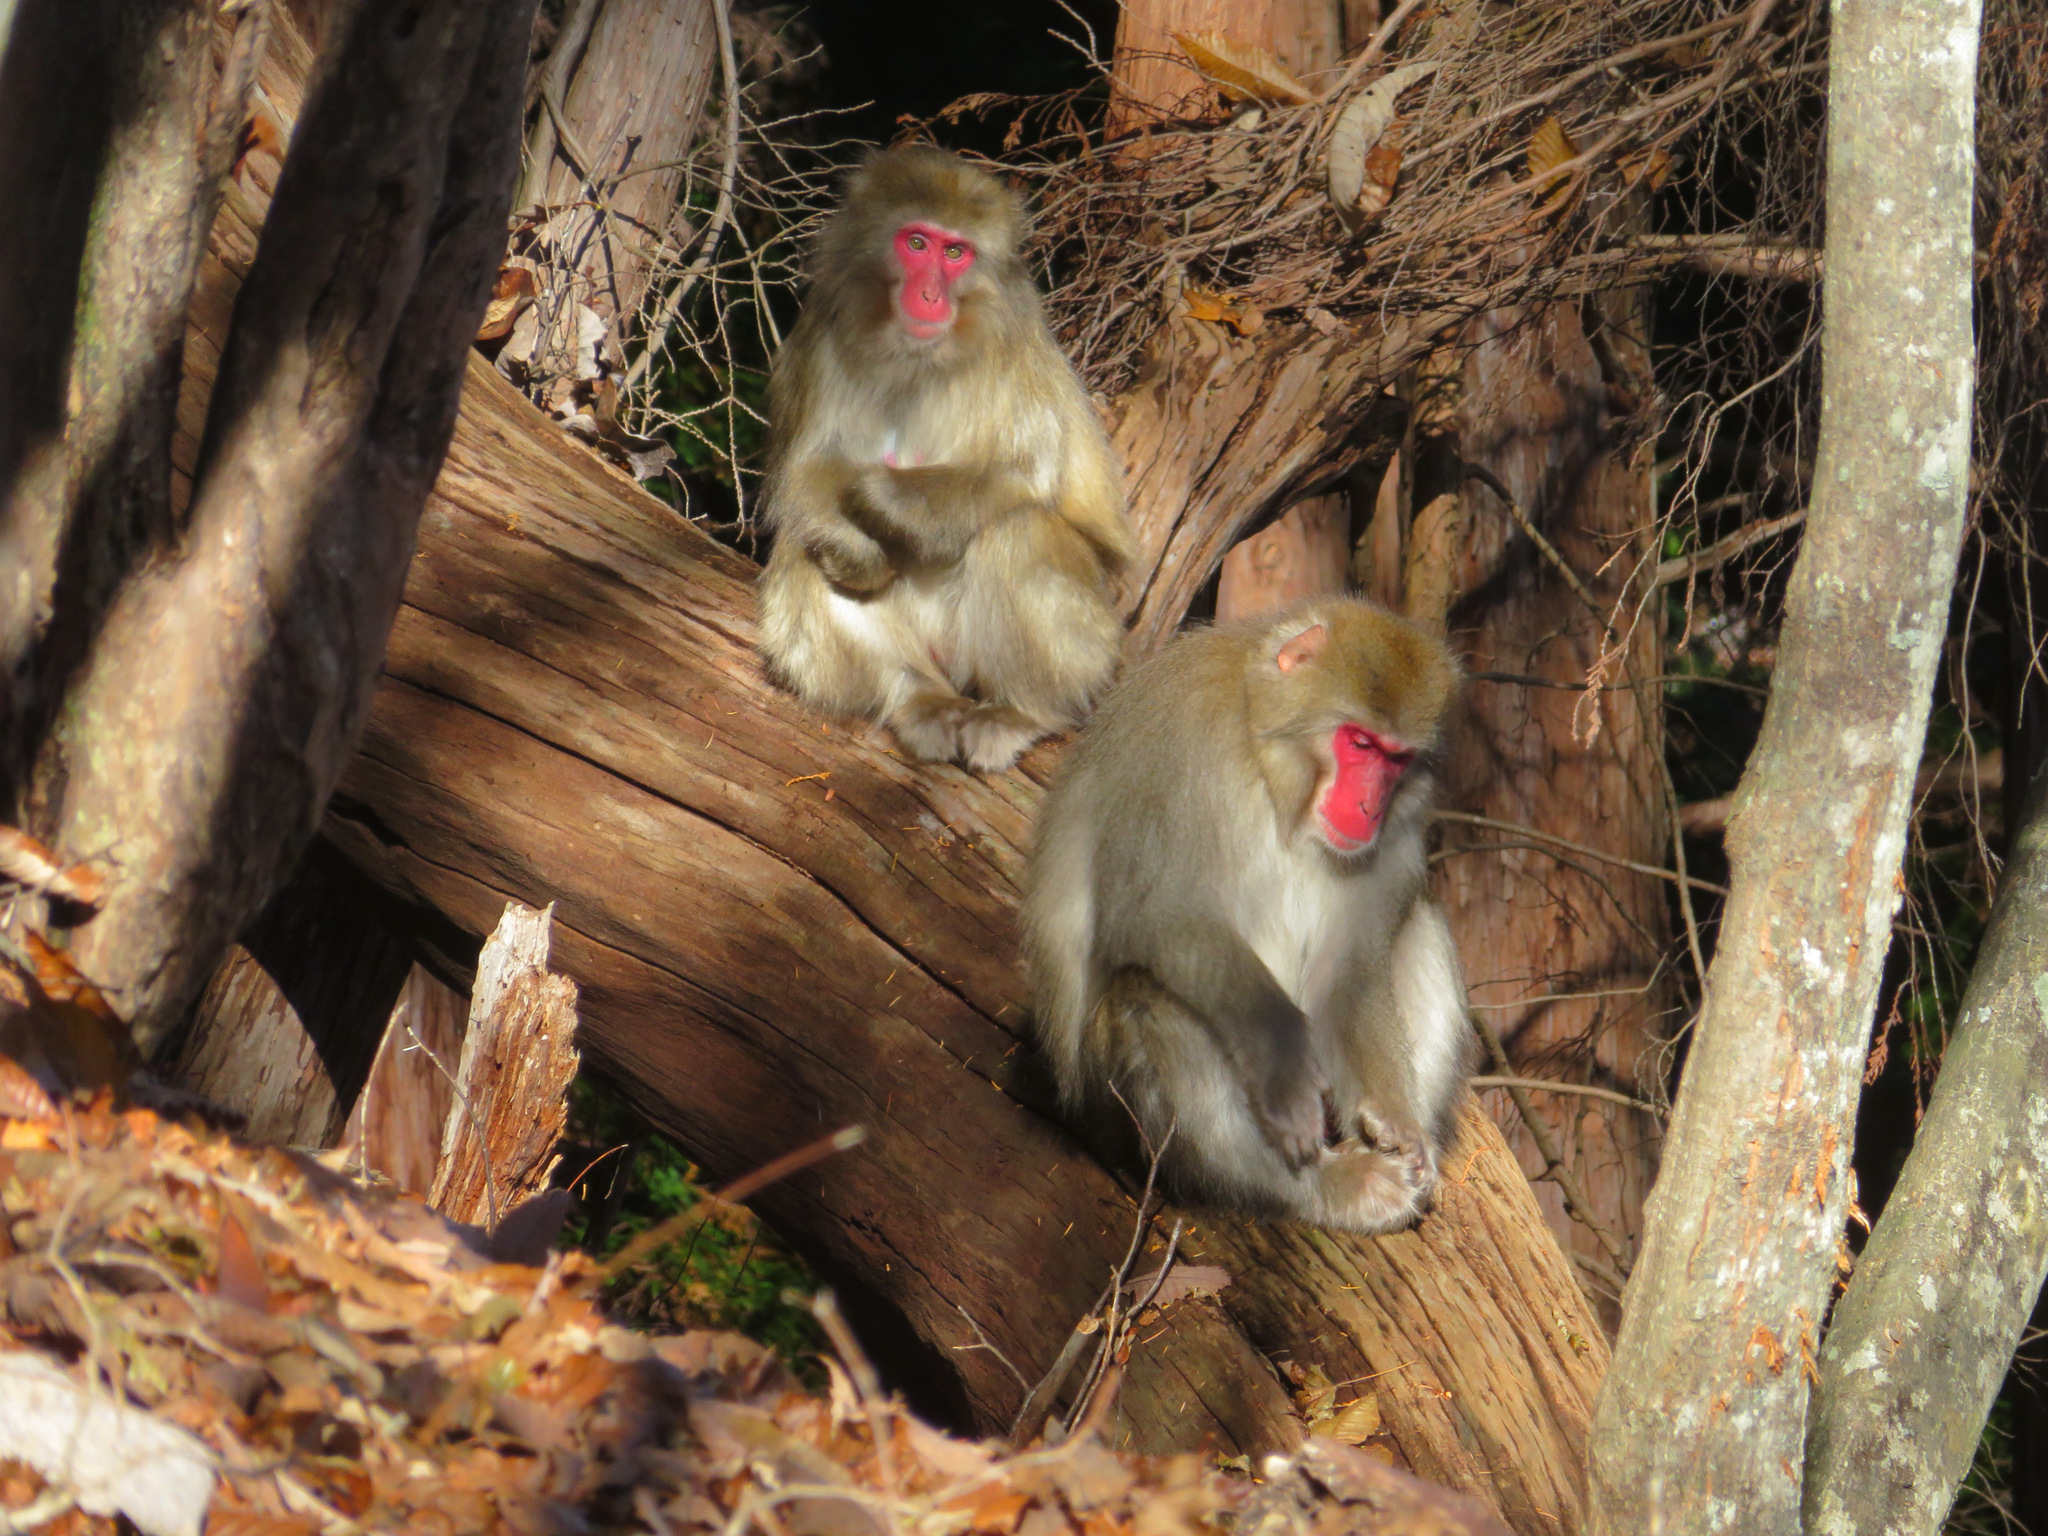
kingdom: Animalia
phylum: Chordata
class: Mammalia
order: Primates
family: Cercopithecidae
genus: Macaca
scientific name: Macaca fuscata
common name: Japanese macaque
